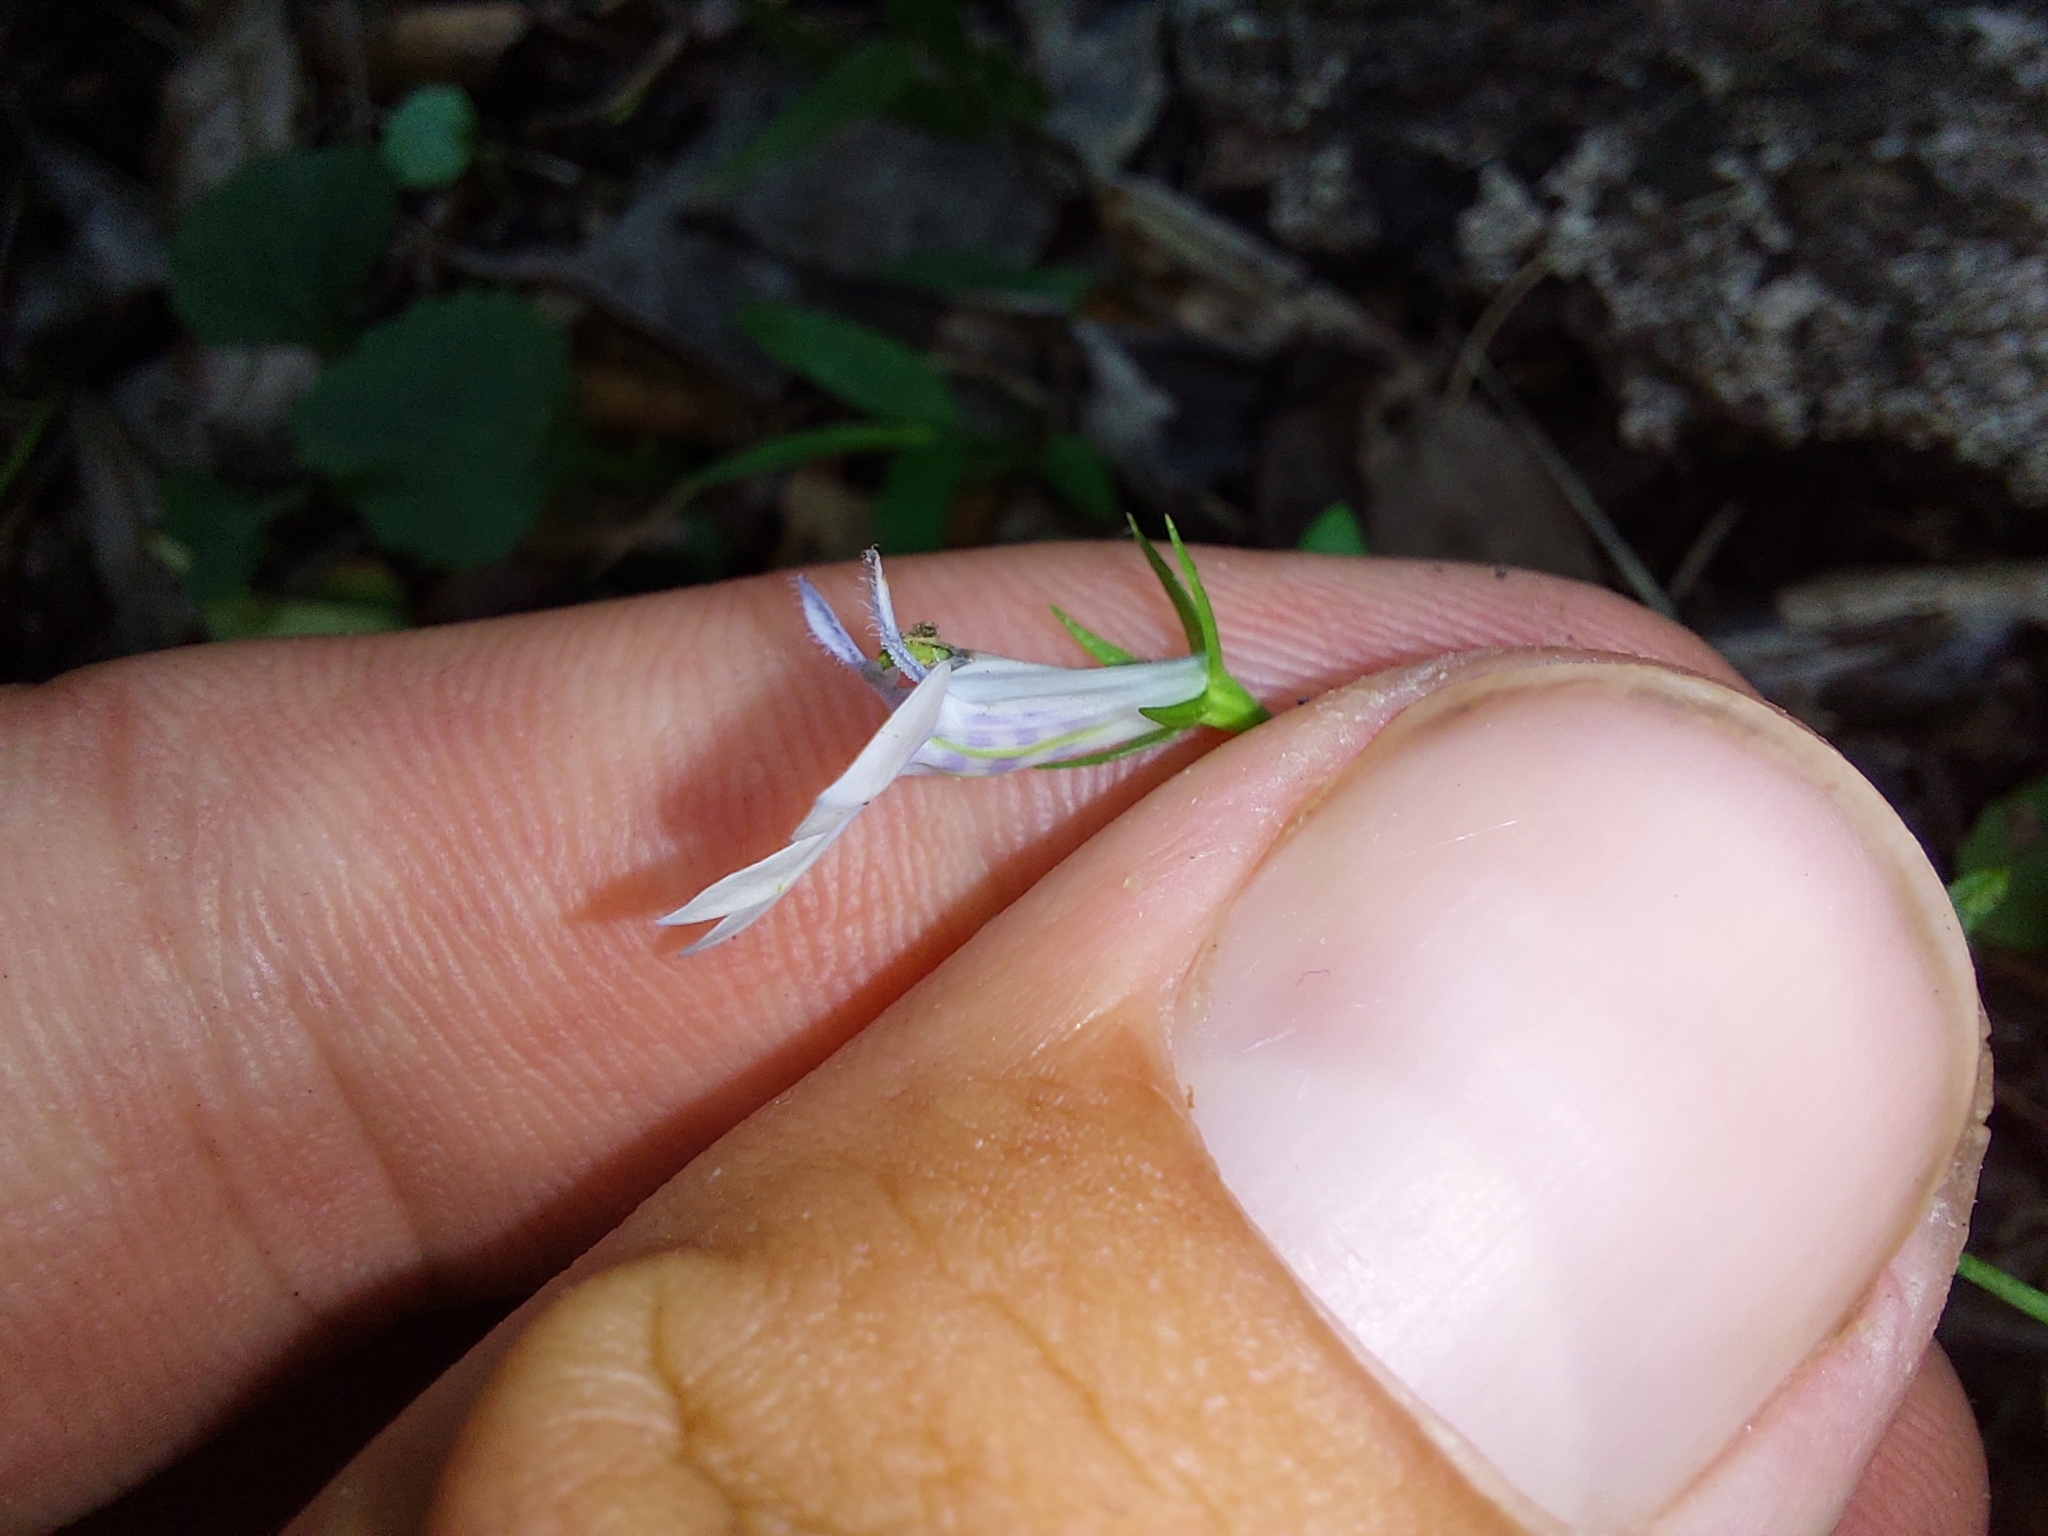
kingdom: Plantae
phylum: Tracheophyta
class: Magnoliopsida
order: Asterales
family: Campanulaceae
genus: Lobelia
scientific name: Lobelia cuneifolia
